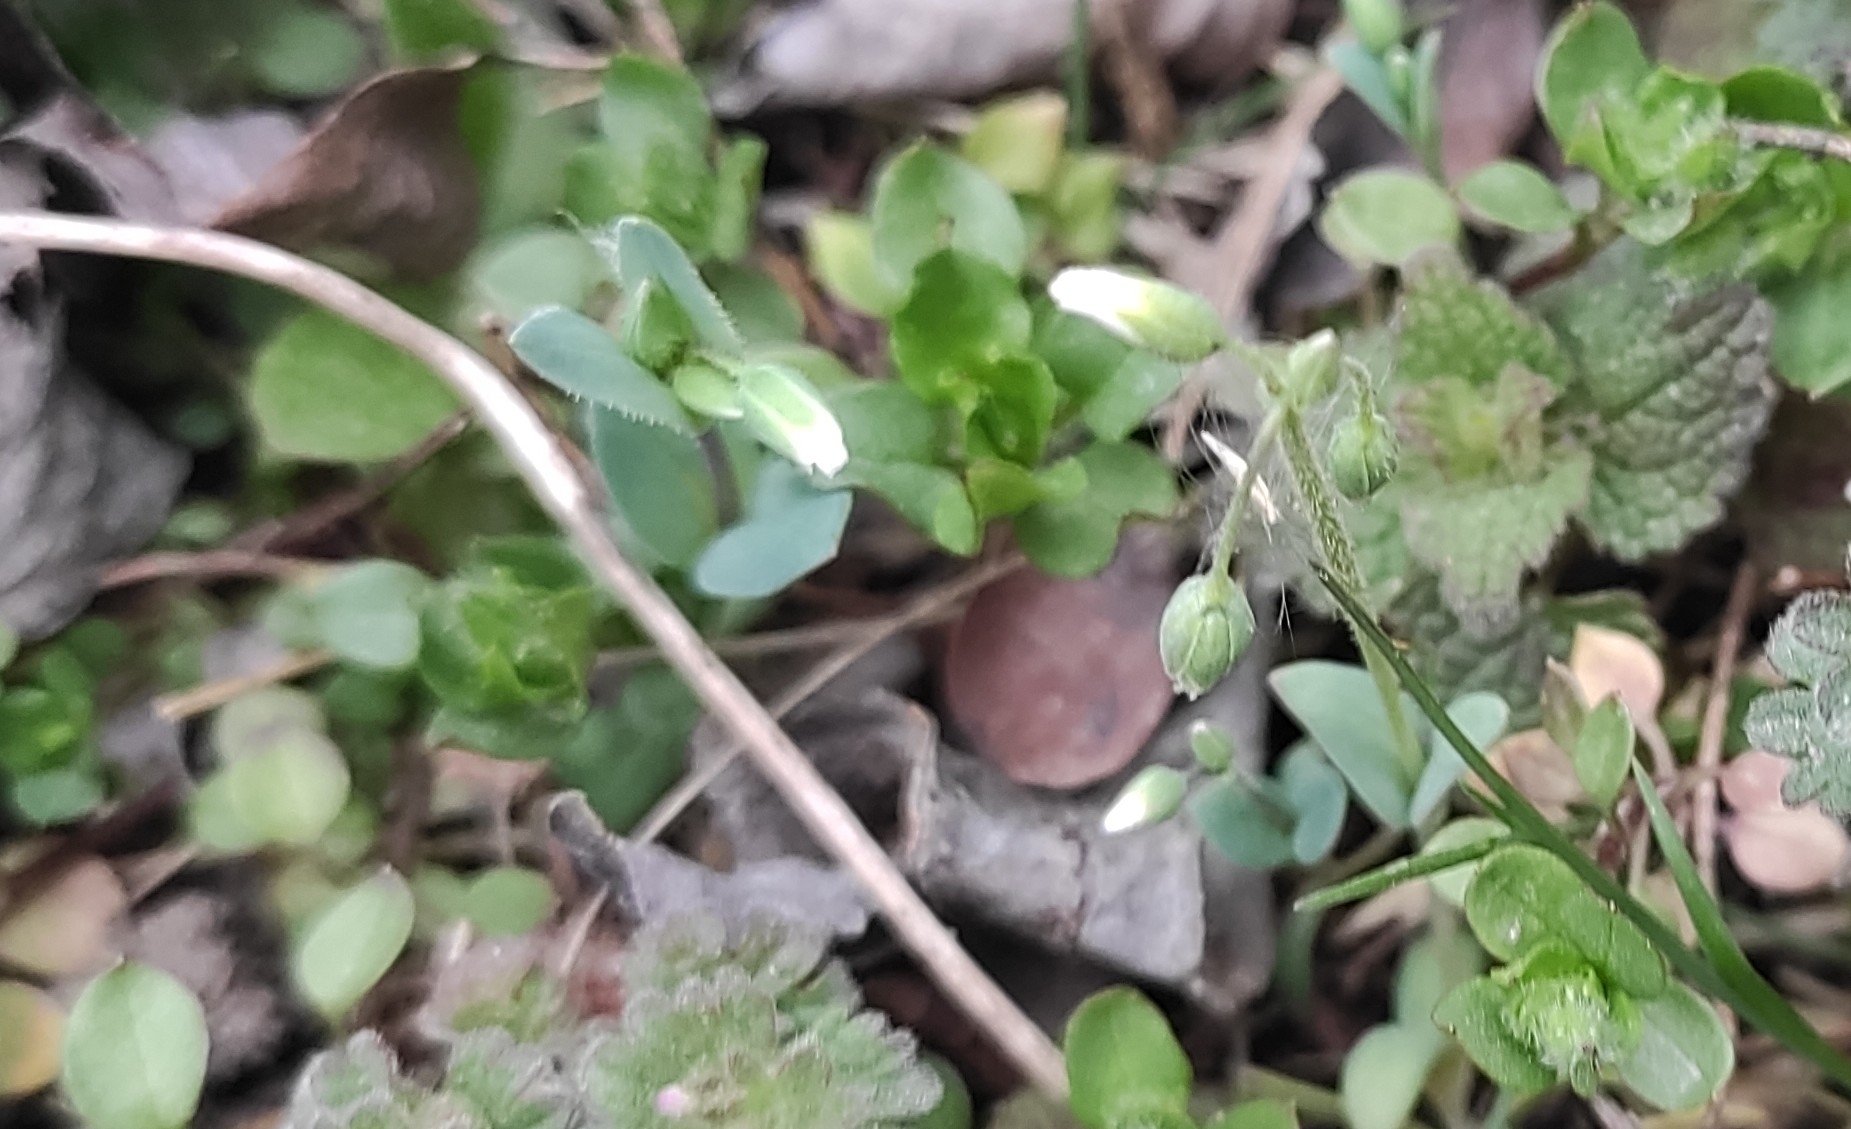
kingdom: Plantae
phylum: Tracheophyta
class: Magnoliopsida
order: Caryophyllales
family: Caryophyllaceae
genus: Holosteum
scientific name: Holosteum umbellatum
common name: Jagged chickweed
